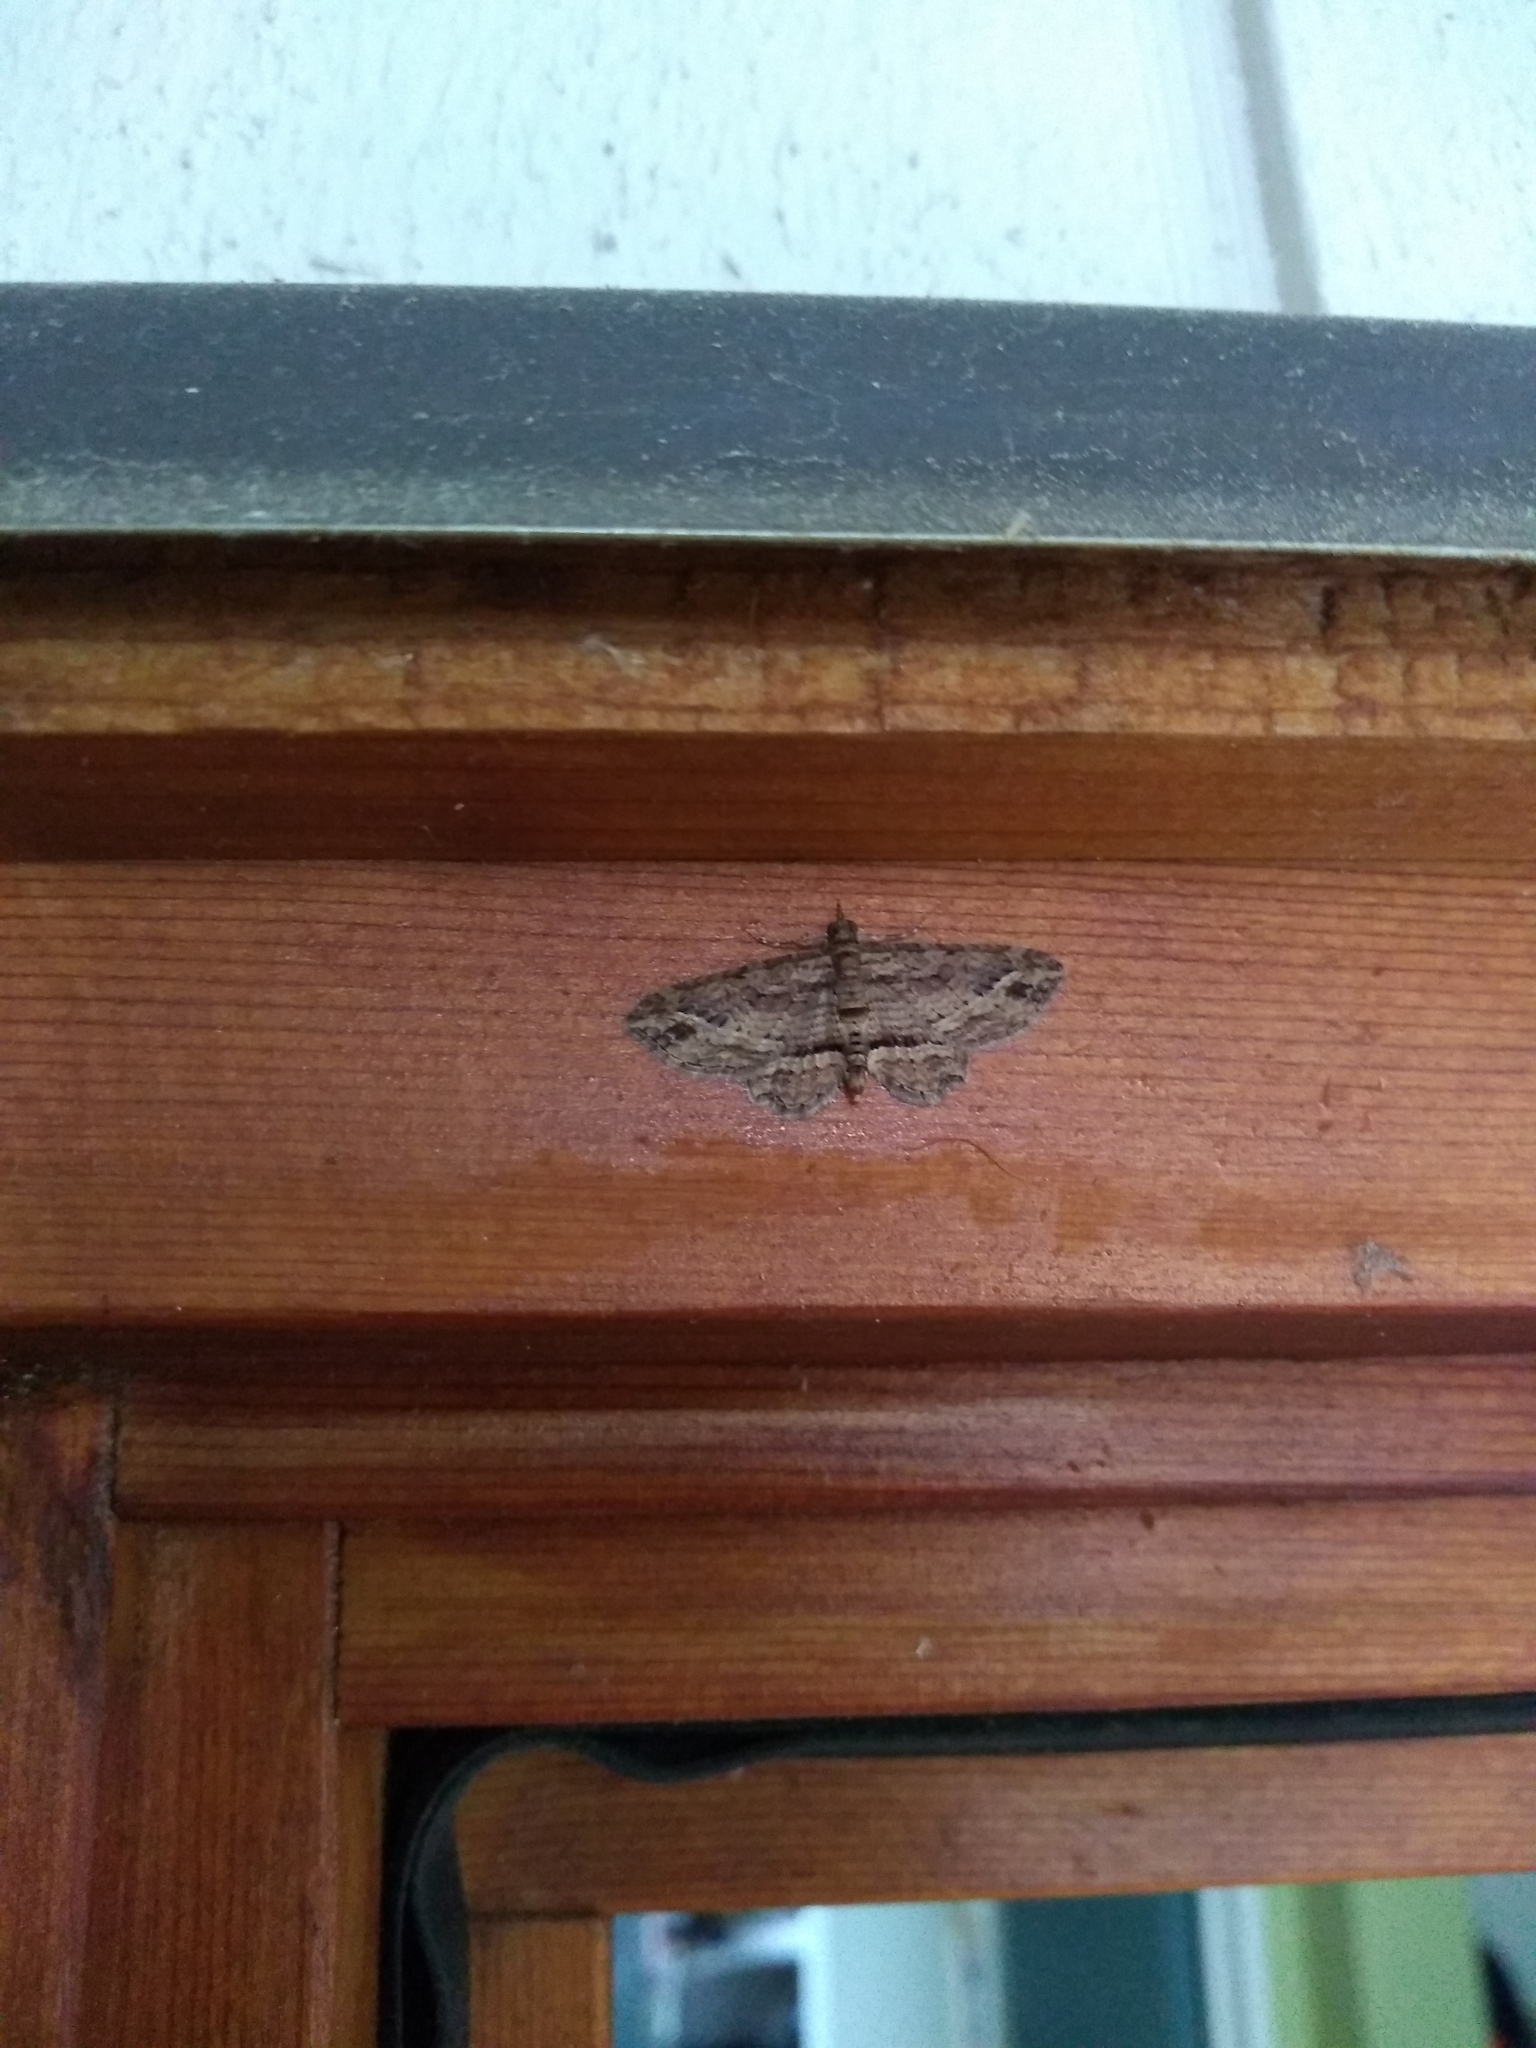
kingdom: Animalia
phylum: Arthropoda
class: Insecta
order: Lepidoptera
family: Geometridae
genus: Chloroclystis
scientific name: Chloroclystis filata
